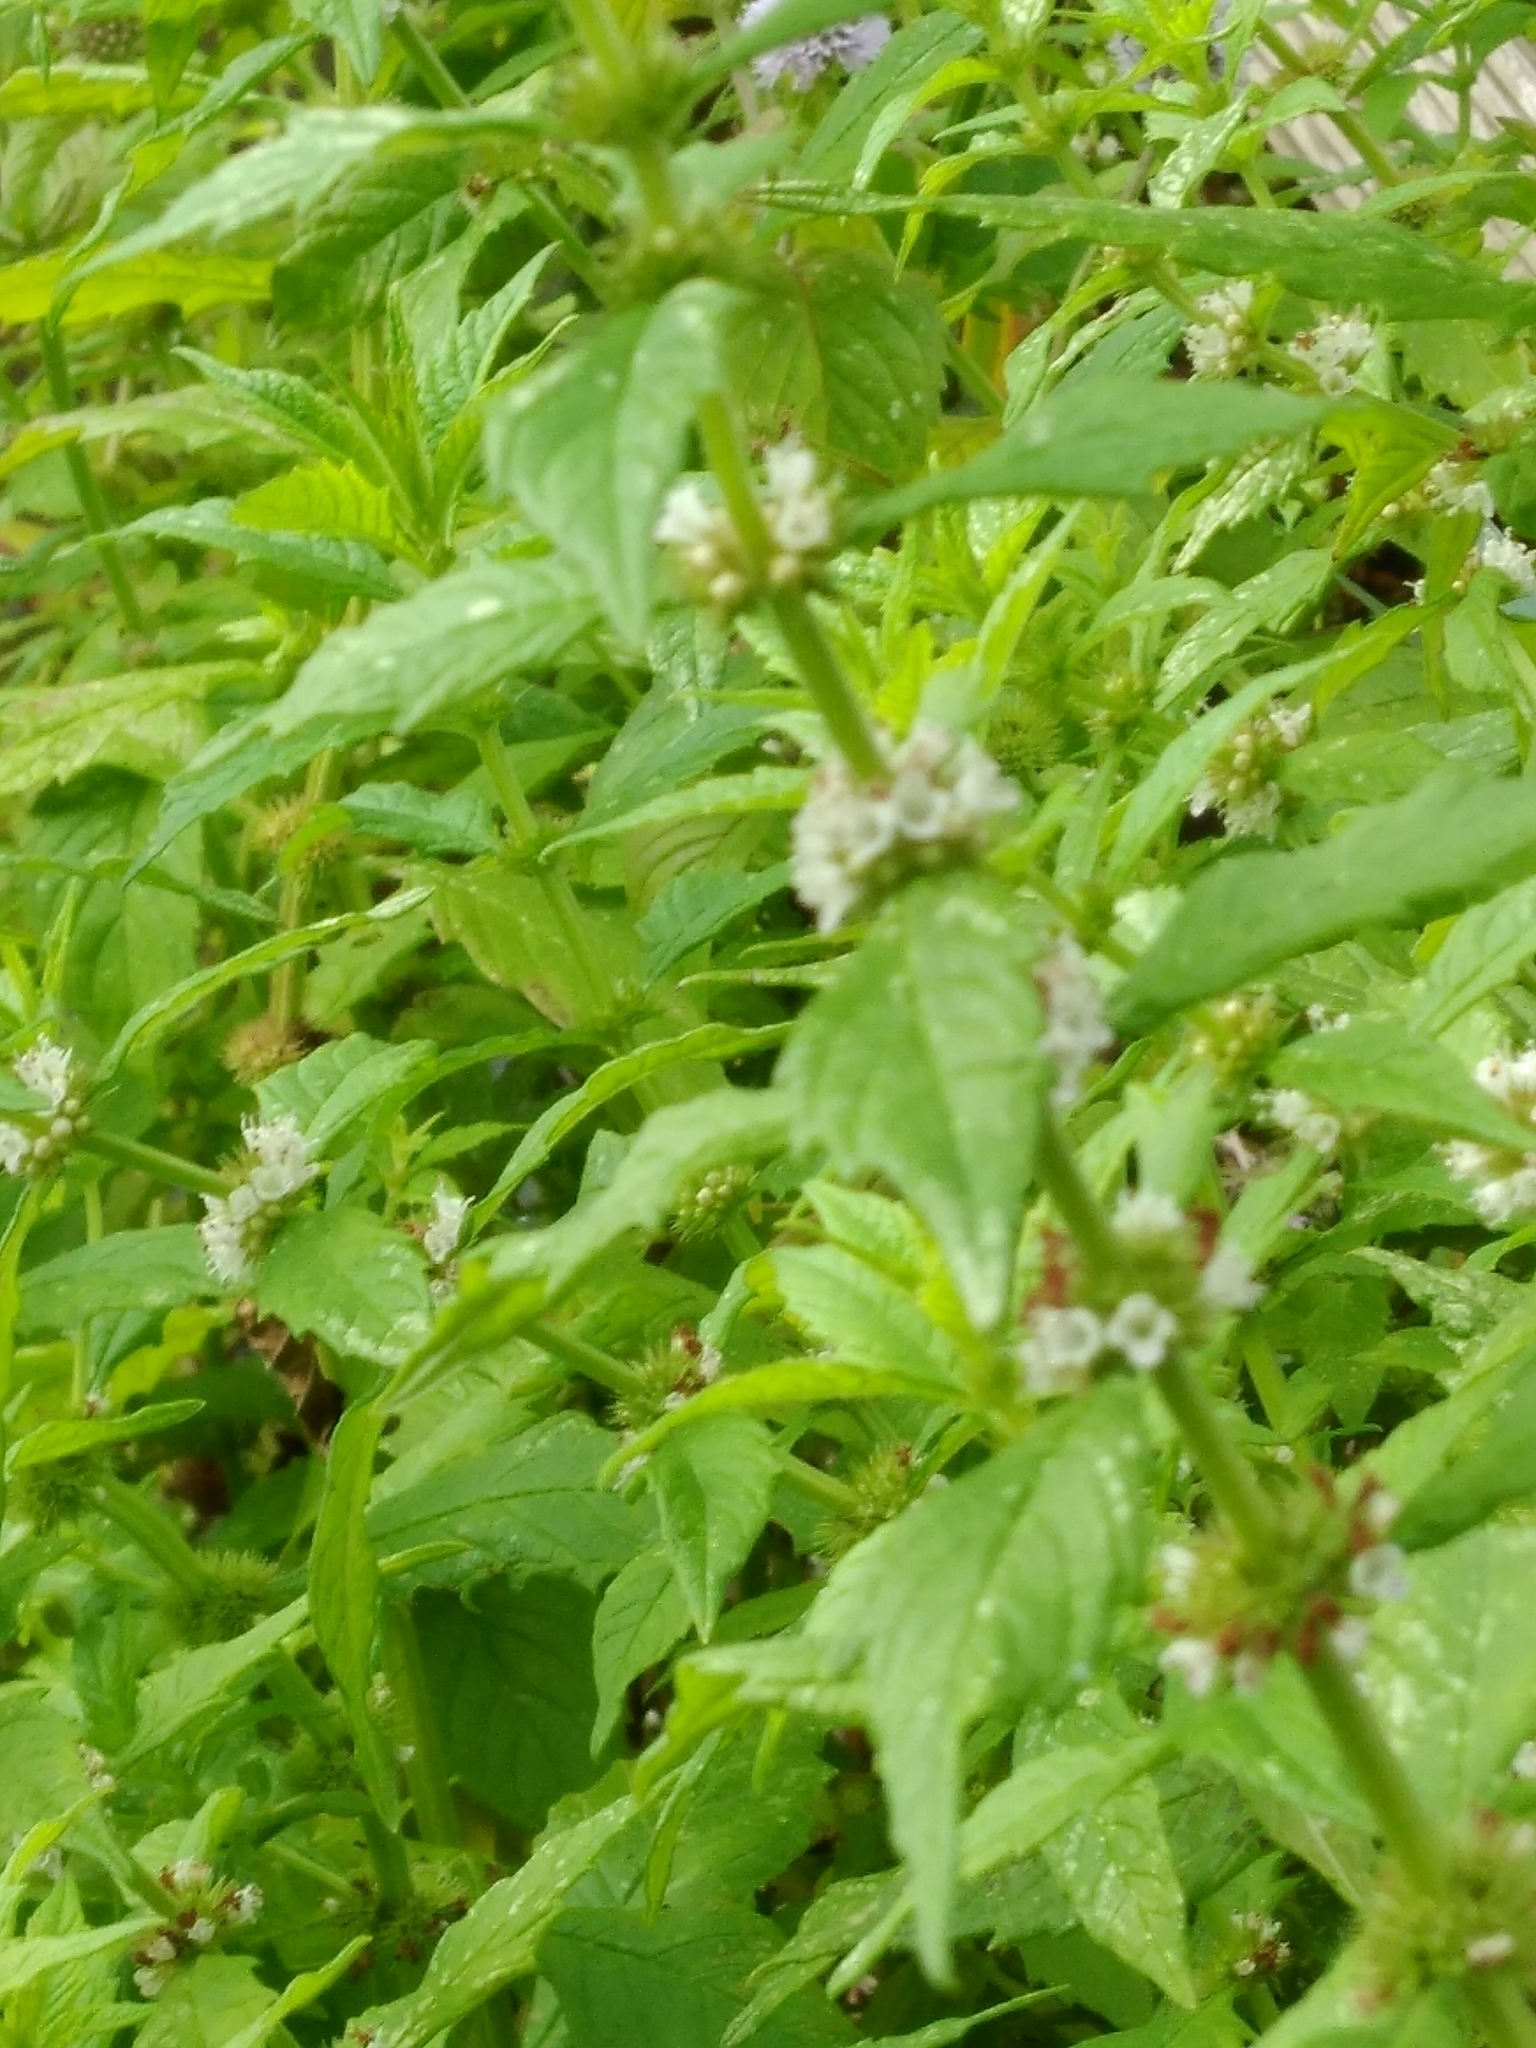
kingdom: Plantae
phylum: Tracheophyta
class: Magnoliopsida
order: Lamiales
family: Lamiaceae
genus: Lycopus
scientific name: Lycopus europaeus
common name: European bugleweed
